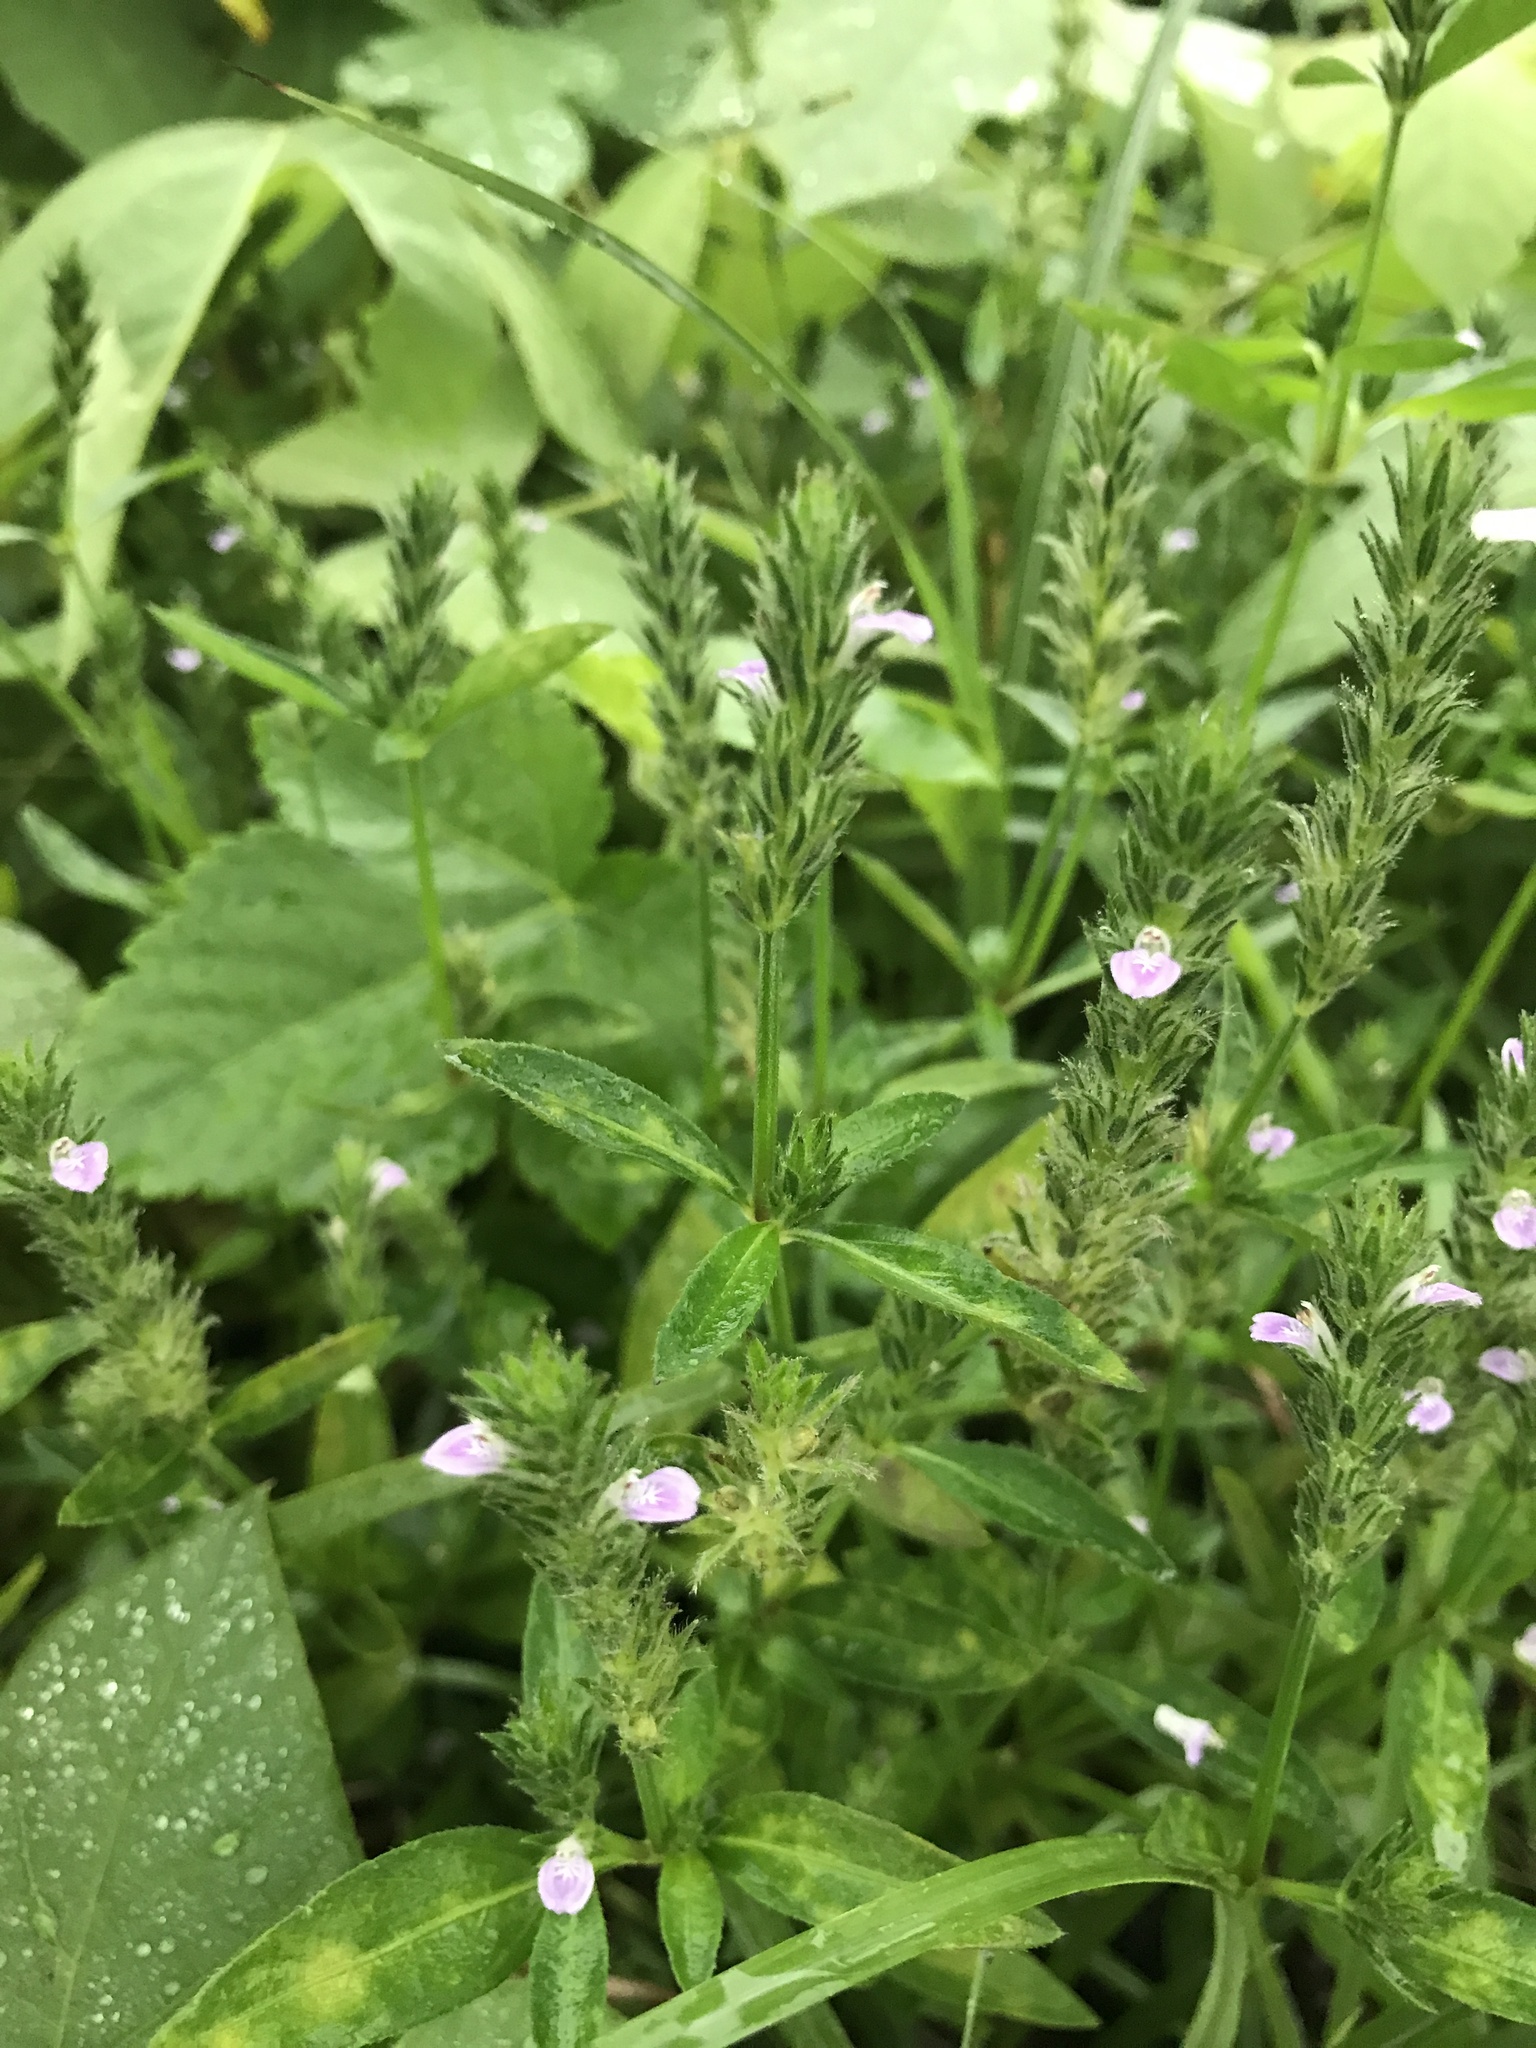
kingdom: Plantae
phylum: Tracheophyta
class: Magnoliopsida
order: Lamiales
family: Acanthaceae
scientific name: Acanthaceae
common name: Acanthaceae
